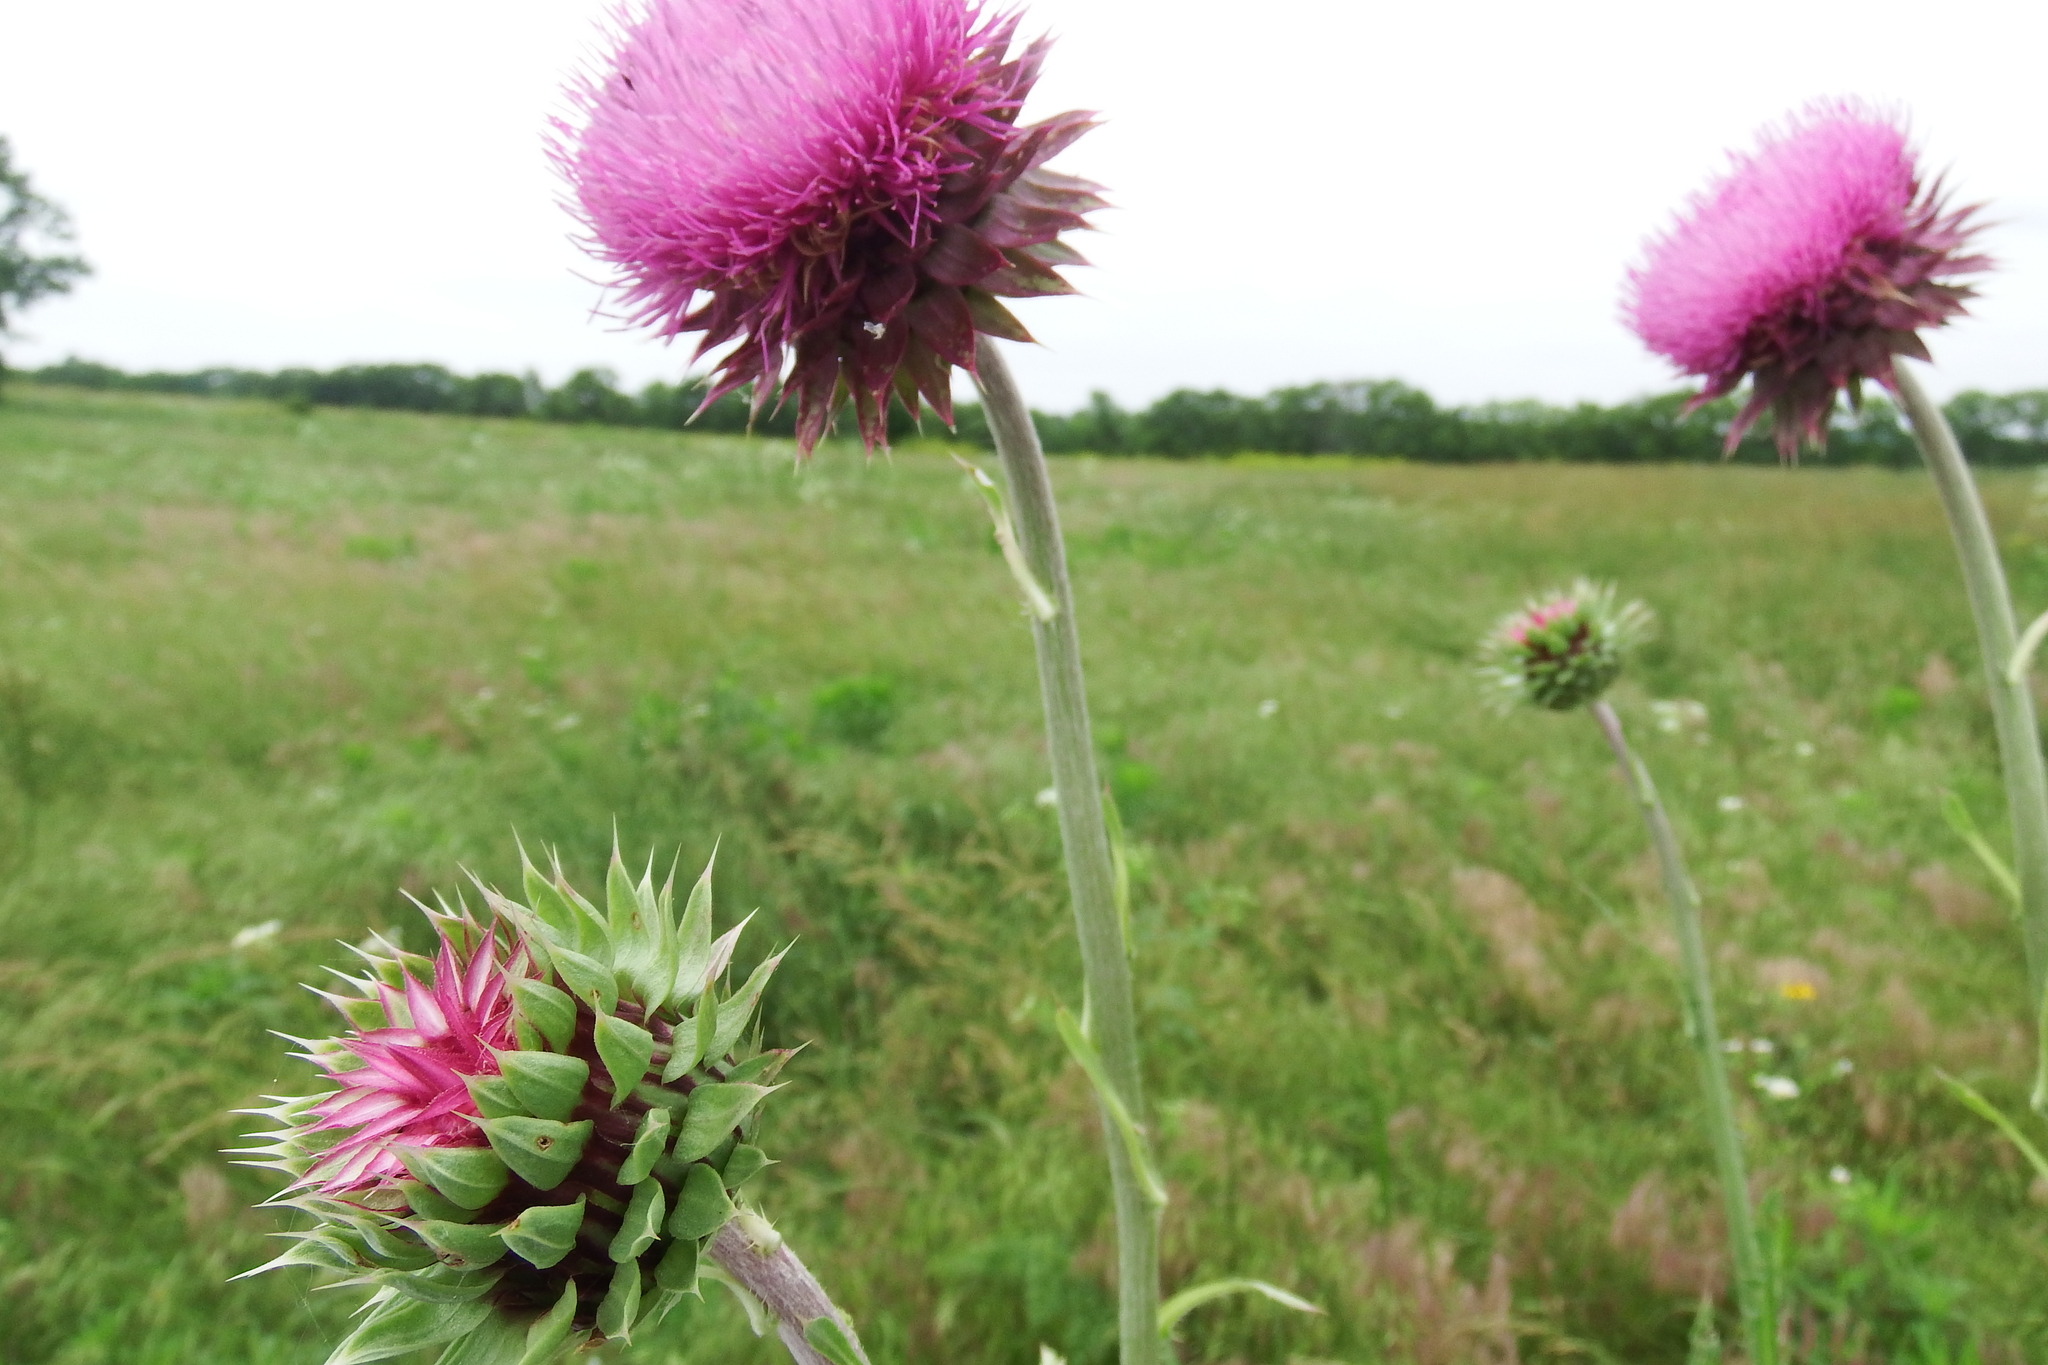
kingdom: Plantae
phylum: Tracheophyta
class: Magnoliopsida
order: Asterales
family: Asteraceae
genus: Carduus
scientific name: Carduus nutans
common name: Musk thistle
